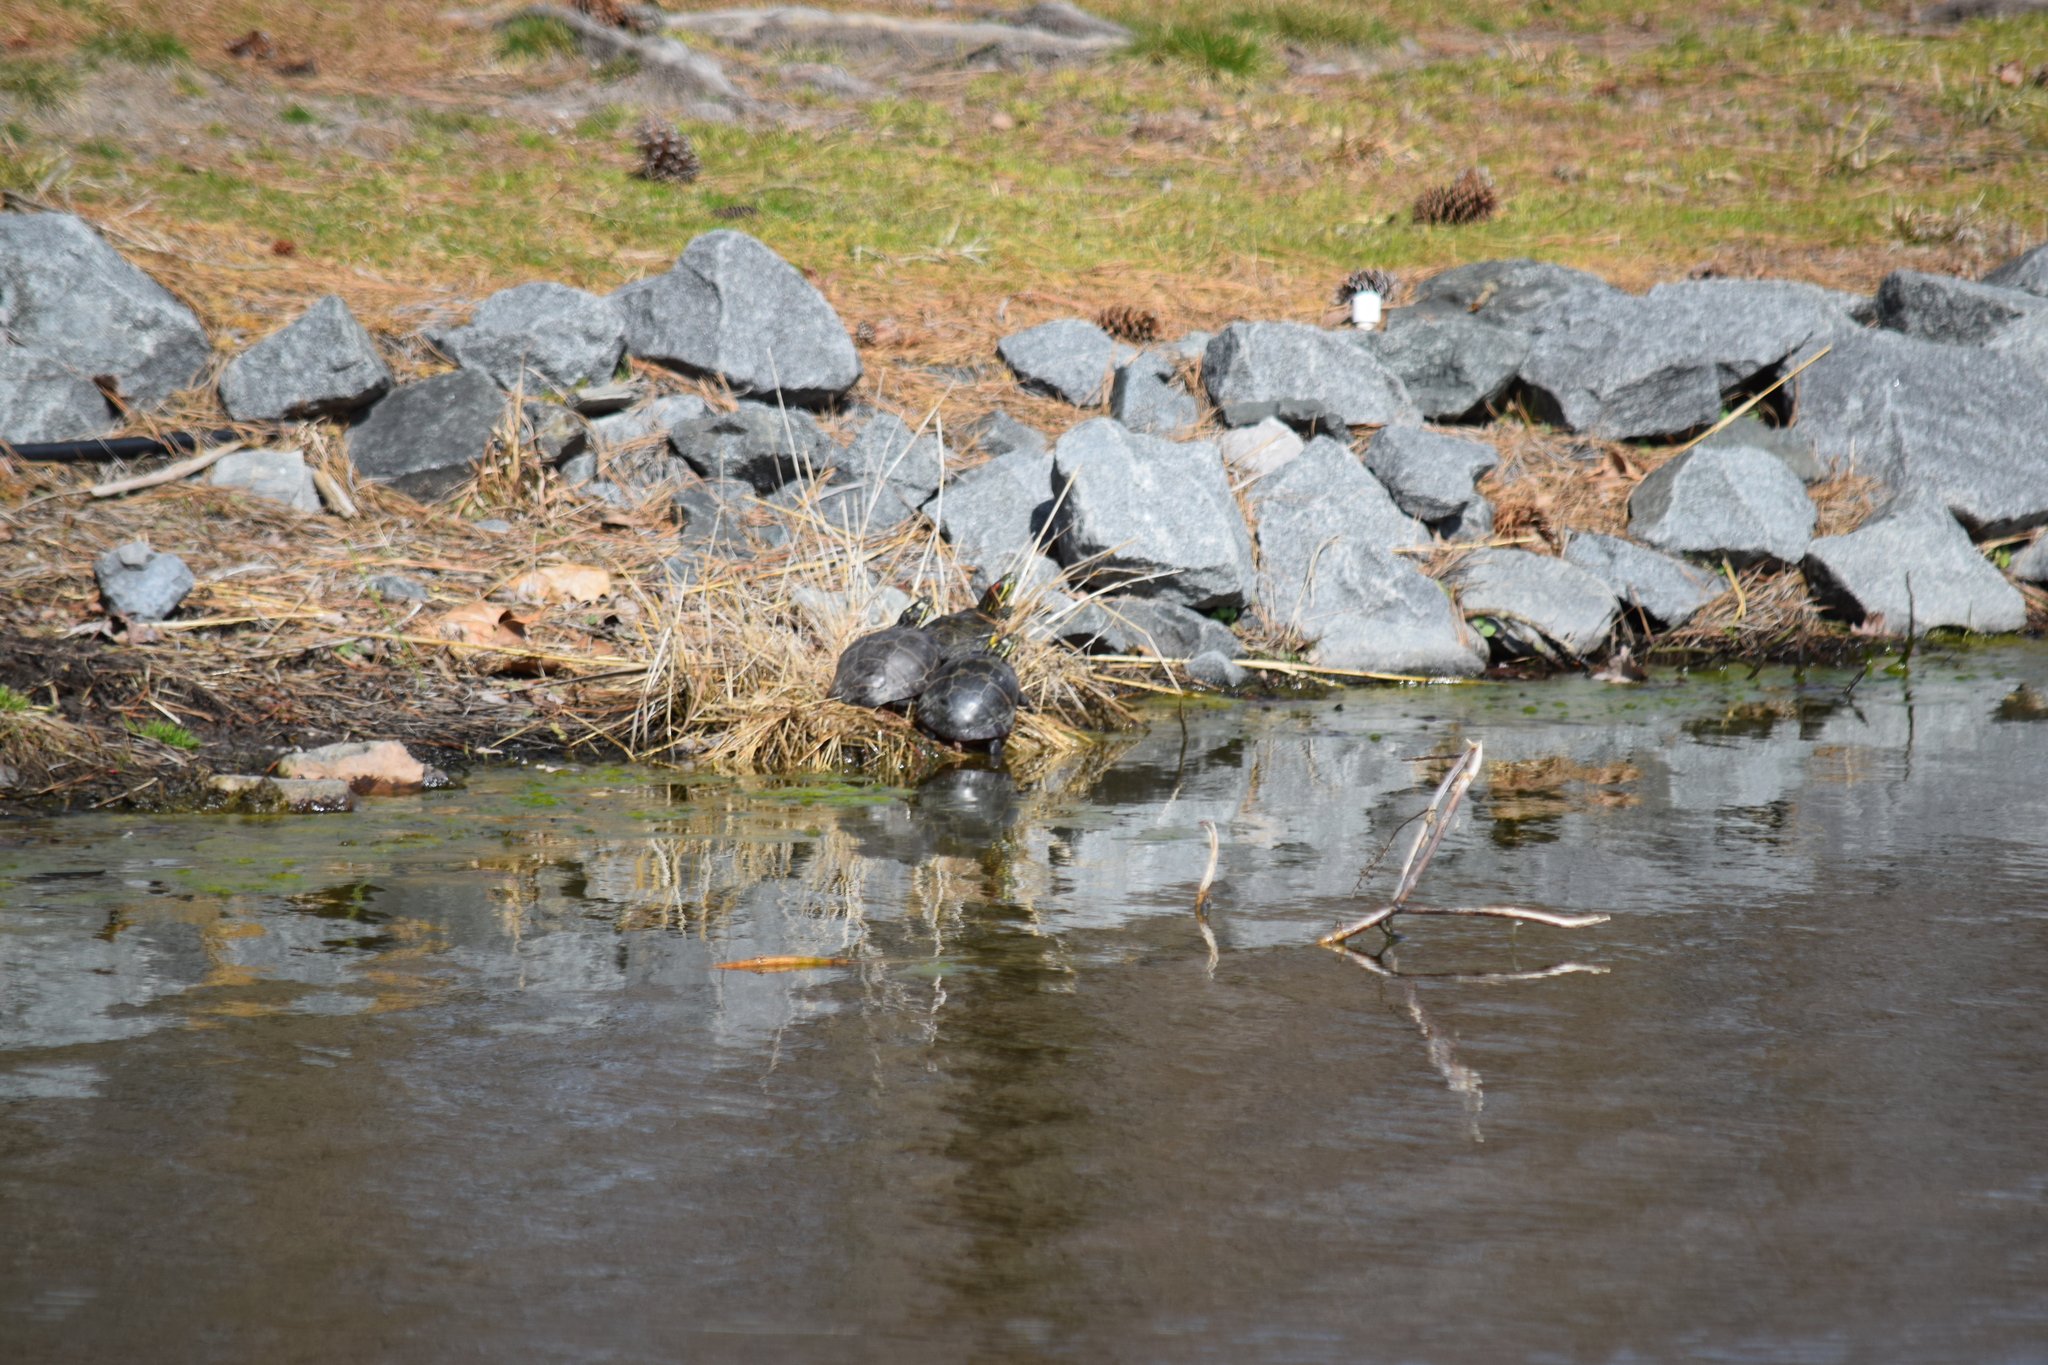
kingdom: Animalia
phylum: Chordata
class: Testudines
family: Emydidae
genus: Chrysemys
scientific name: Chrysemys picta
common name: Painted turtle
